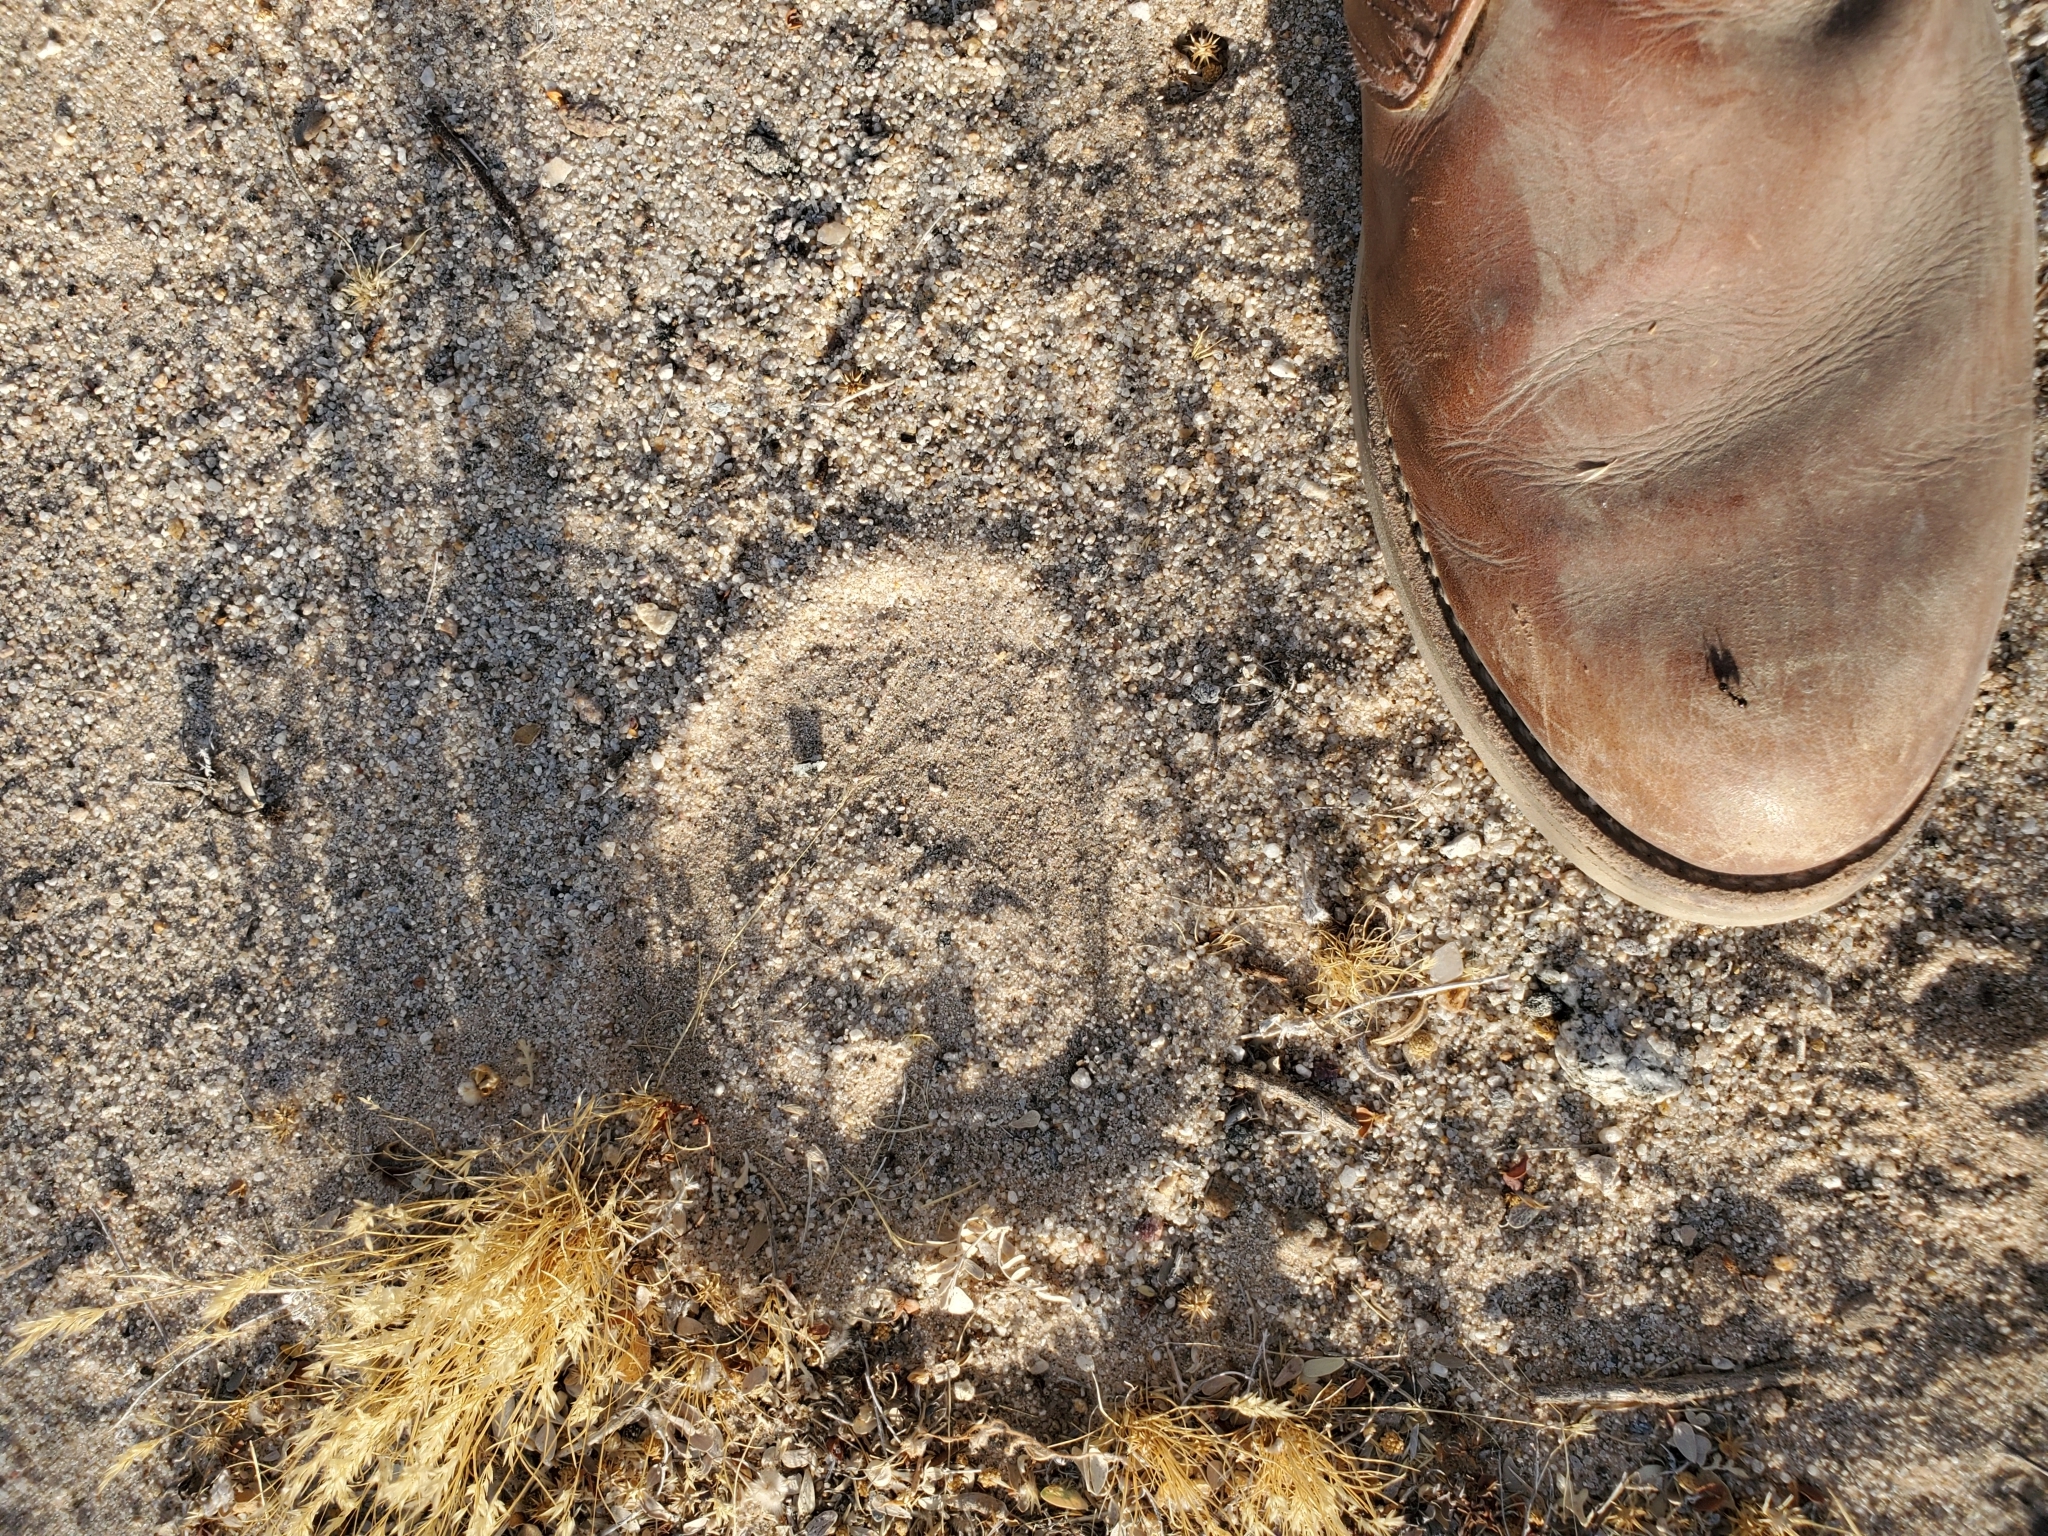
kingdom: Animalia
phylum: Chordata
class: Squamata
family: Viperidae
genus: Crotalus
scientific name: Crotalus cerastes
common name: Sidewinder
